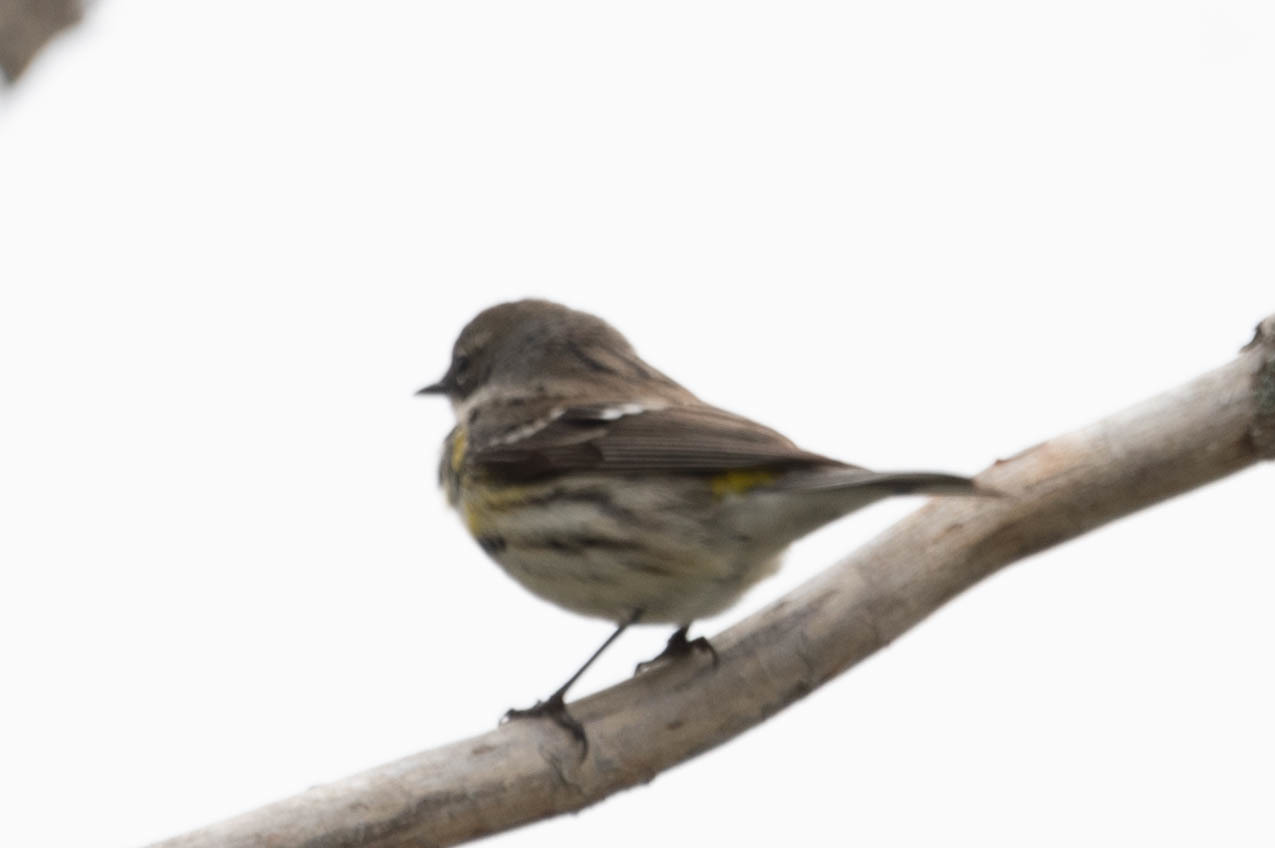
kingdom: Animalia
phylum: Chordata
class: Aves
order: Passeriformes
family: Parulidae
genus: Setophaga
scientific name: Setophaga coronata
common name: Myrtle warbler
